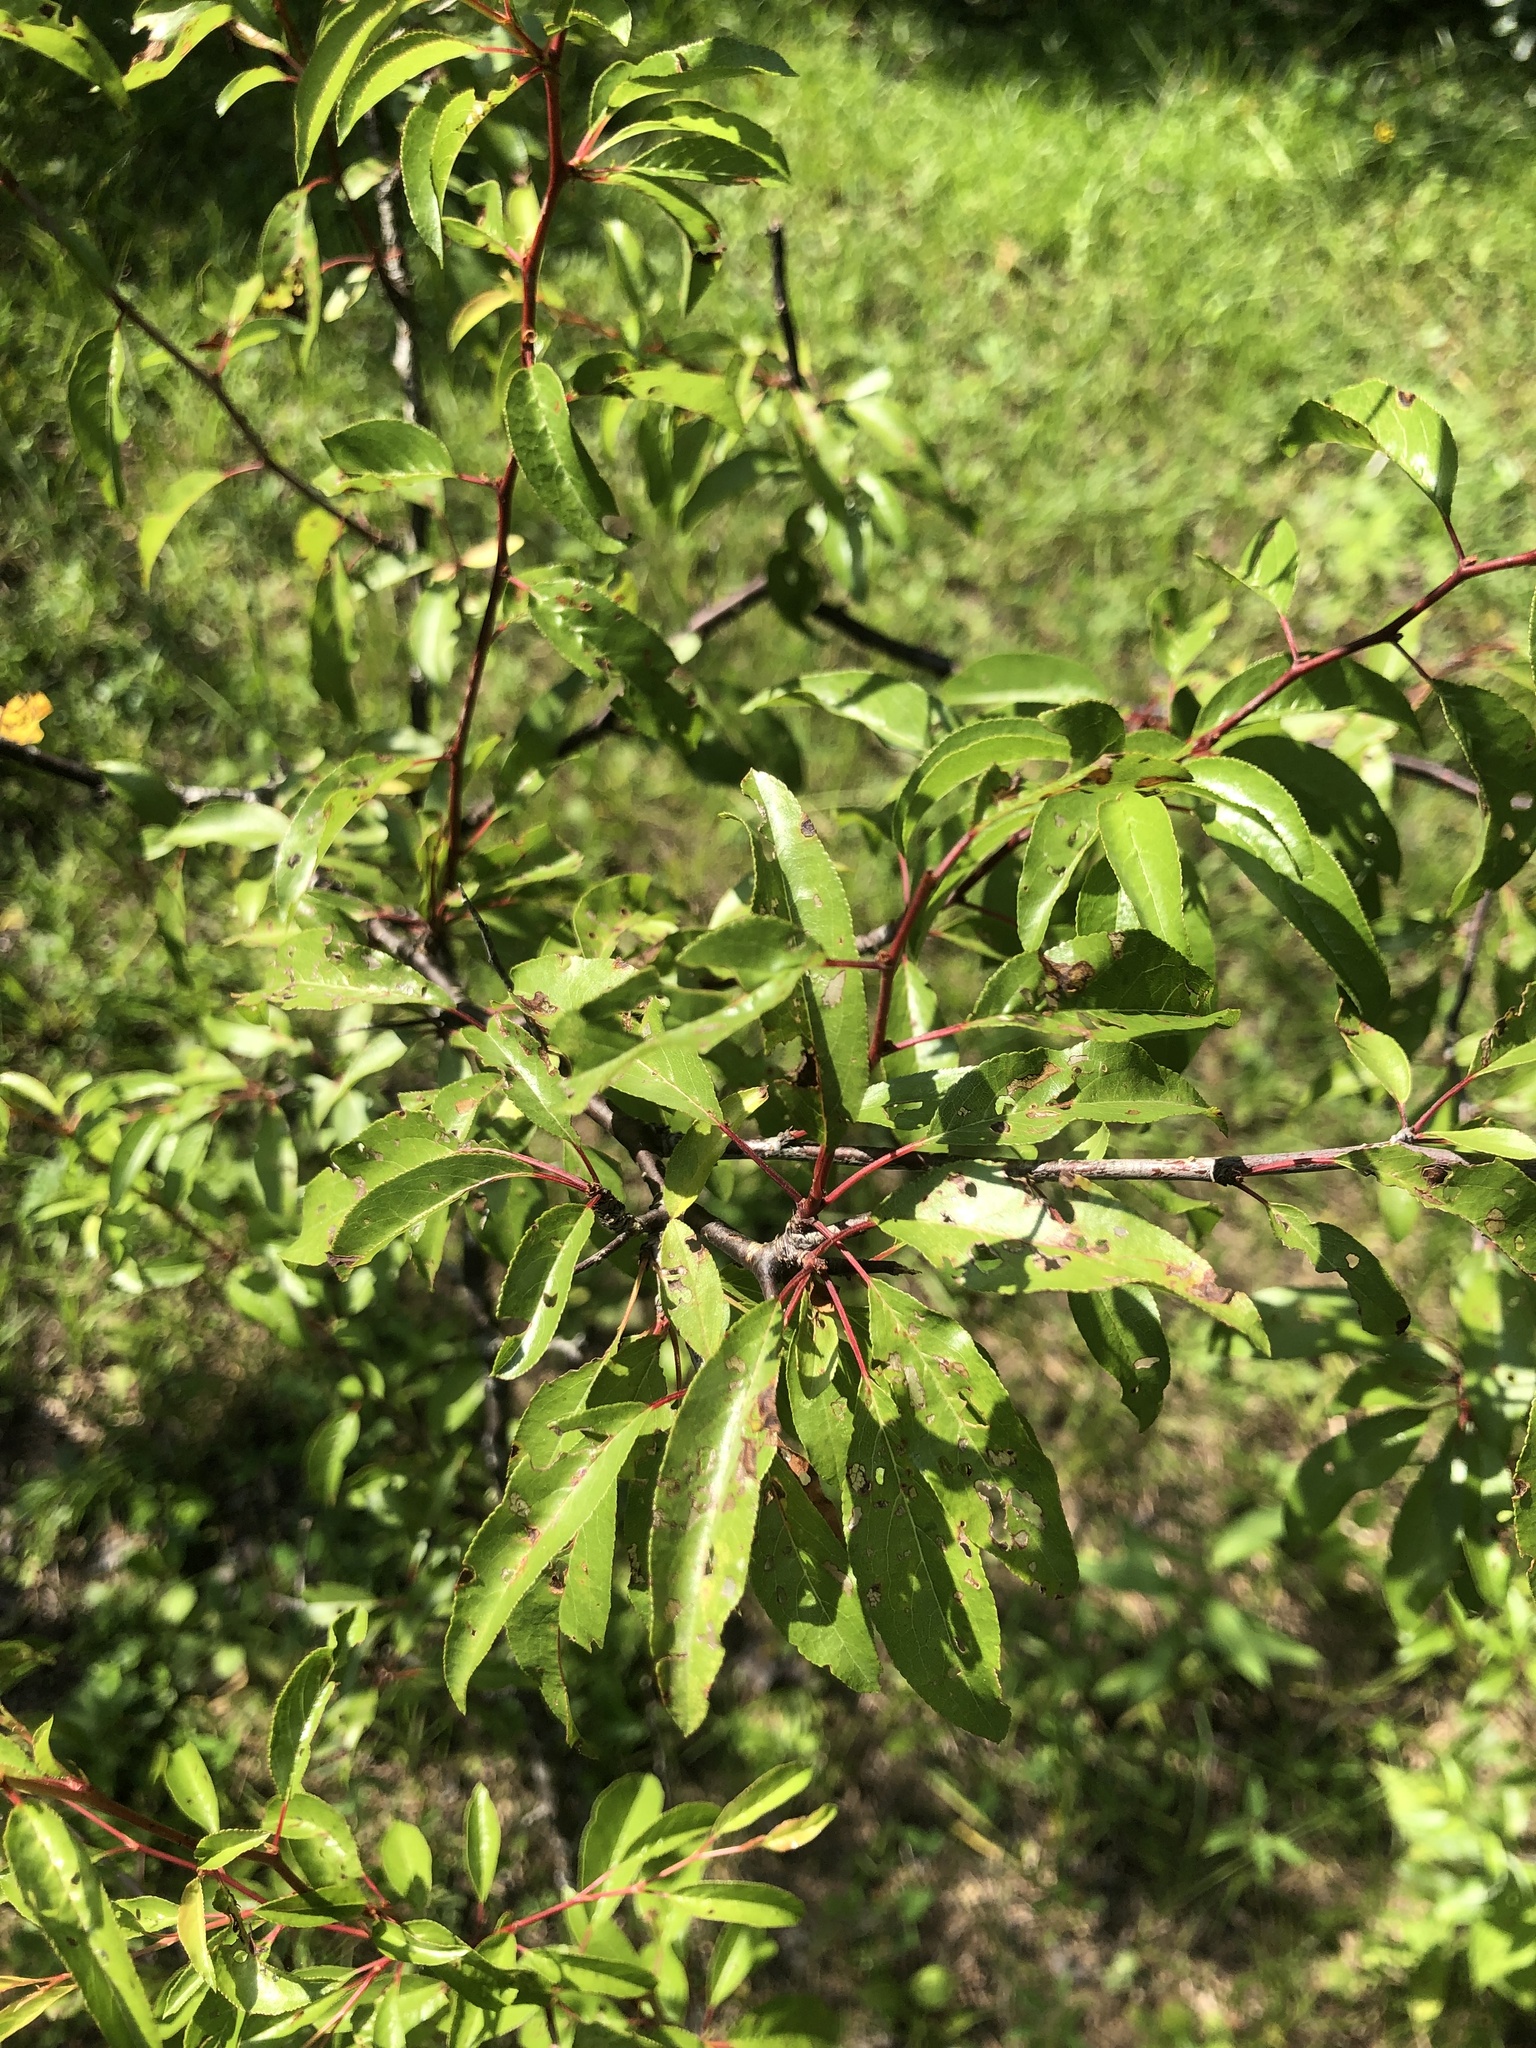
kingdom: Plantae
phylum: Tracheophyta
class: Magnoliopsida
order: Rosales
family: Rosaceae
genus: Prunus
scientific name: Prunus angustifolia
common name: Cherokee plum
